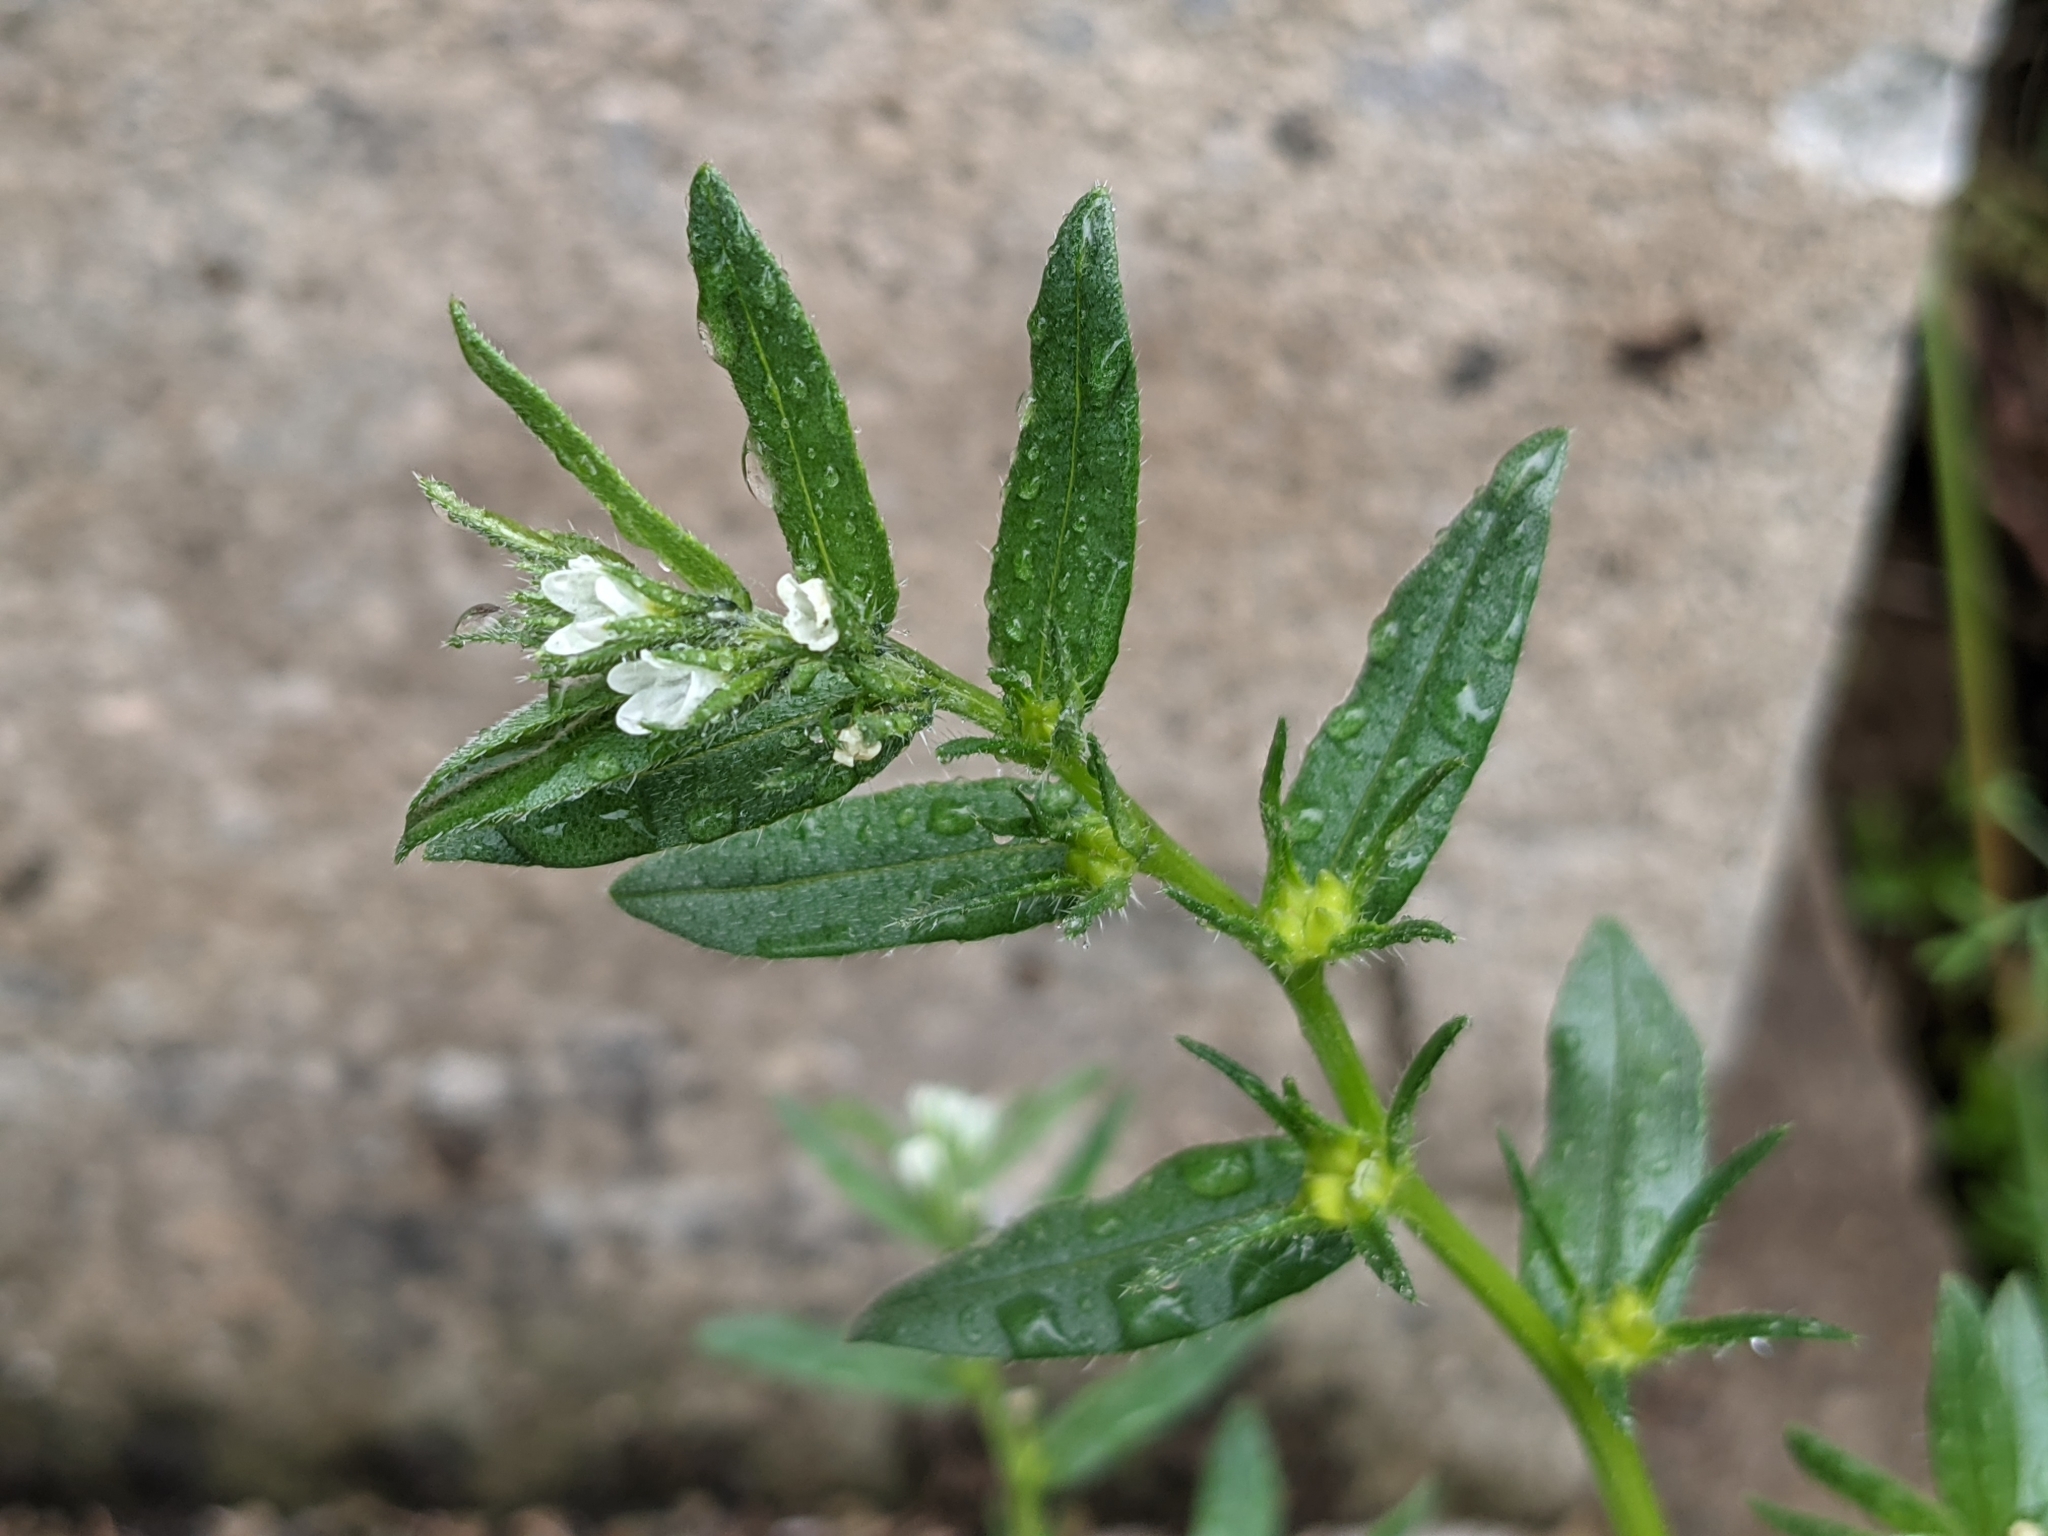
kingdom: Plantae
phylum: Tracheophyta
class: Magnoliopsida
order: Boraginales
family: Boraginaceae
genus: Buglossoides
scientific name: Buglossoides arvensis
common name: Corn gromwell
